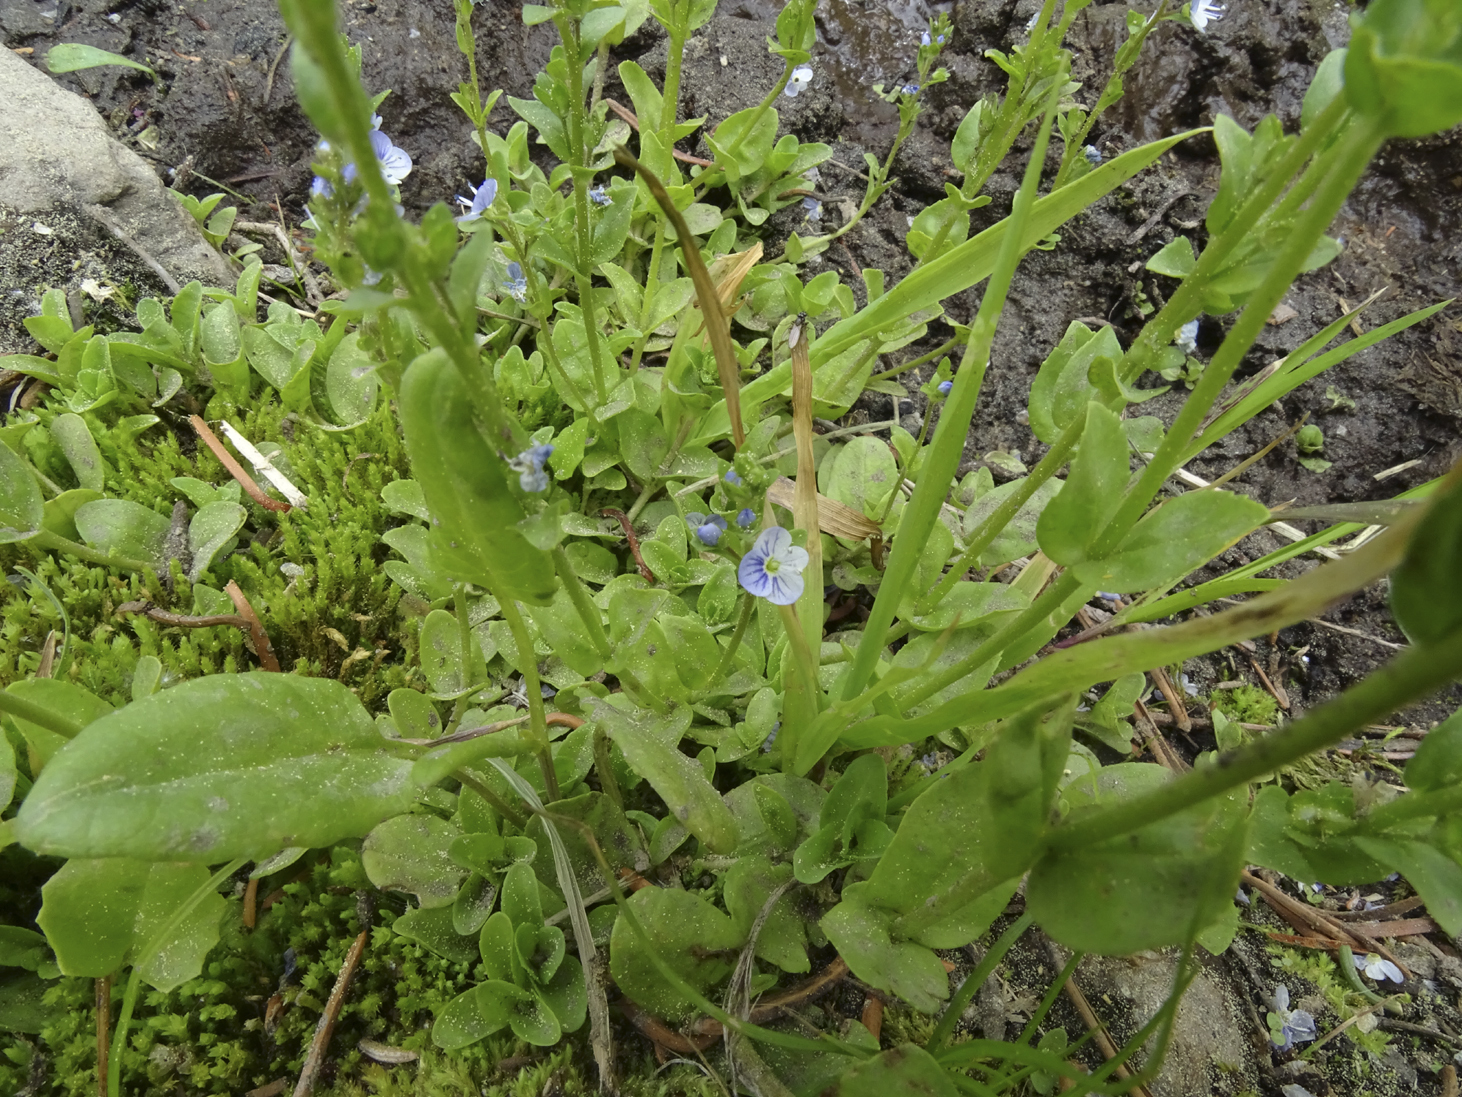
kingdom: Plantae
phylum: Tracheophyta
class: Magnoliopsida
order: Lamiales
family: Plantaginaceae
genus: Veronica
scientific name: Veronica serpyllifolia
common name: Thyme-leaved speedwell
